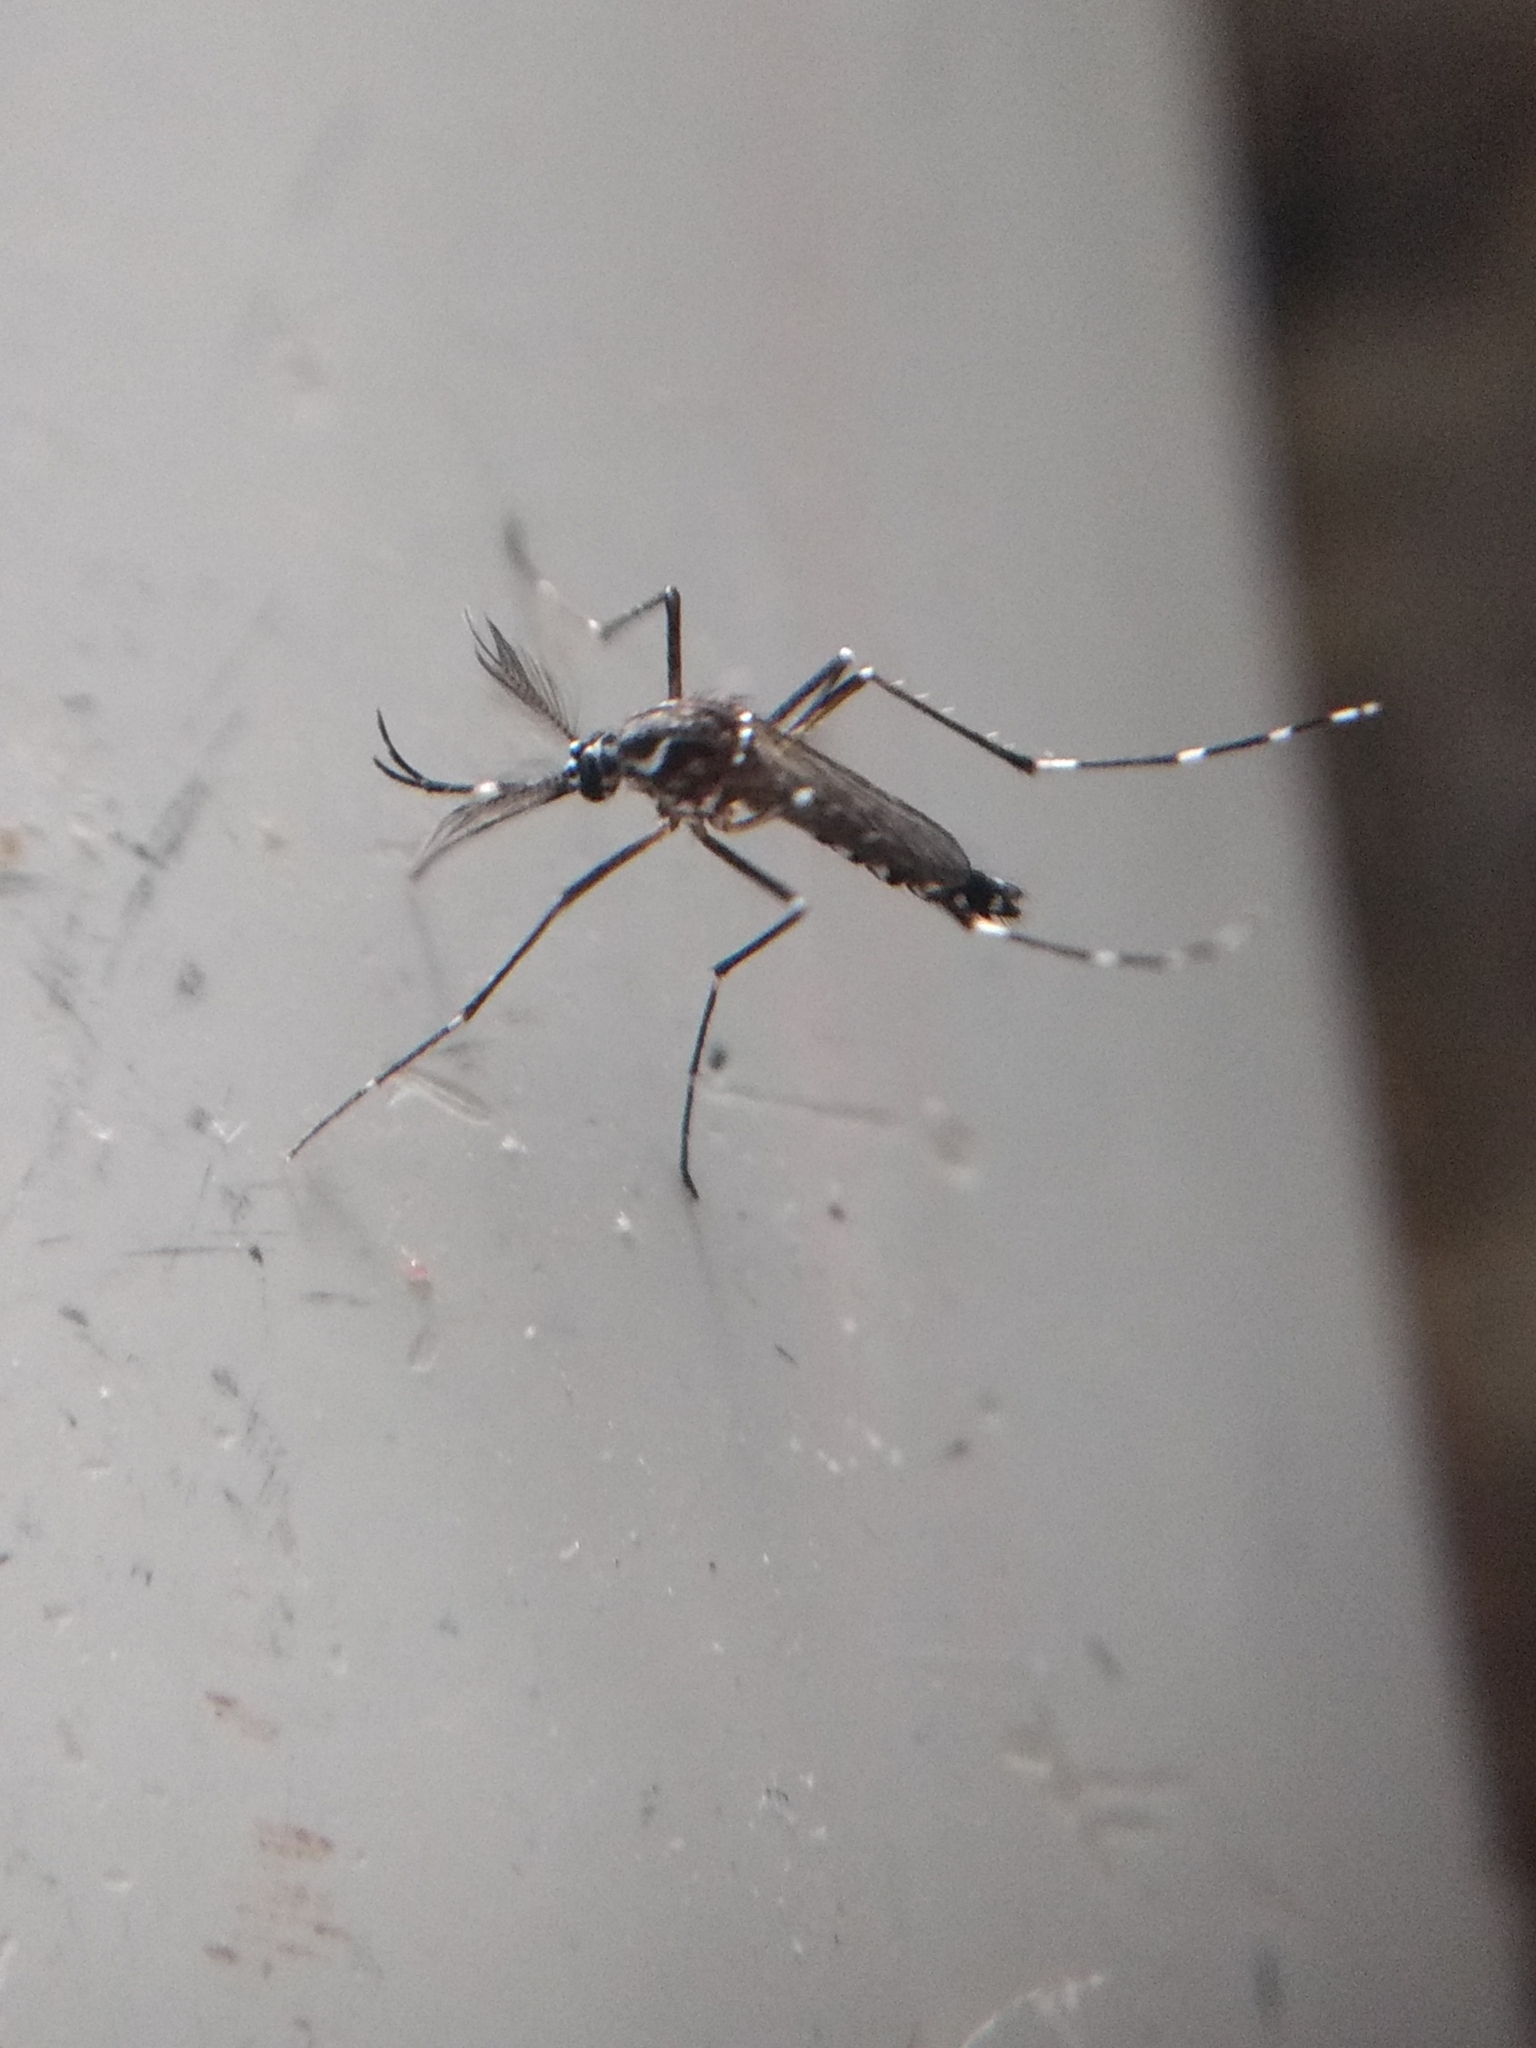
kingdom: Animalia
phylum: Arthropoda
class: Insecta
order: Diptera
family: Culicidae
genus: Aedes
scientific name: Aedes aegypti
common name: Yellow fever mosquito
